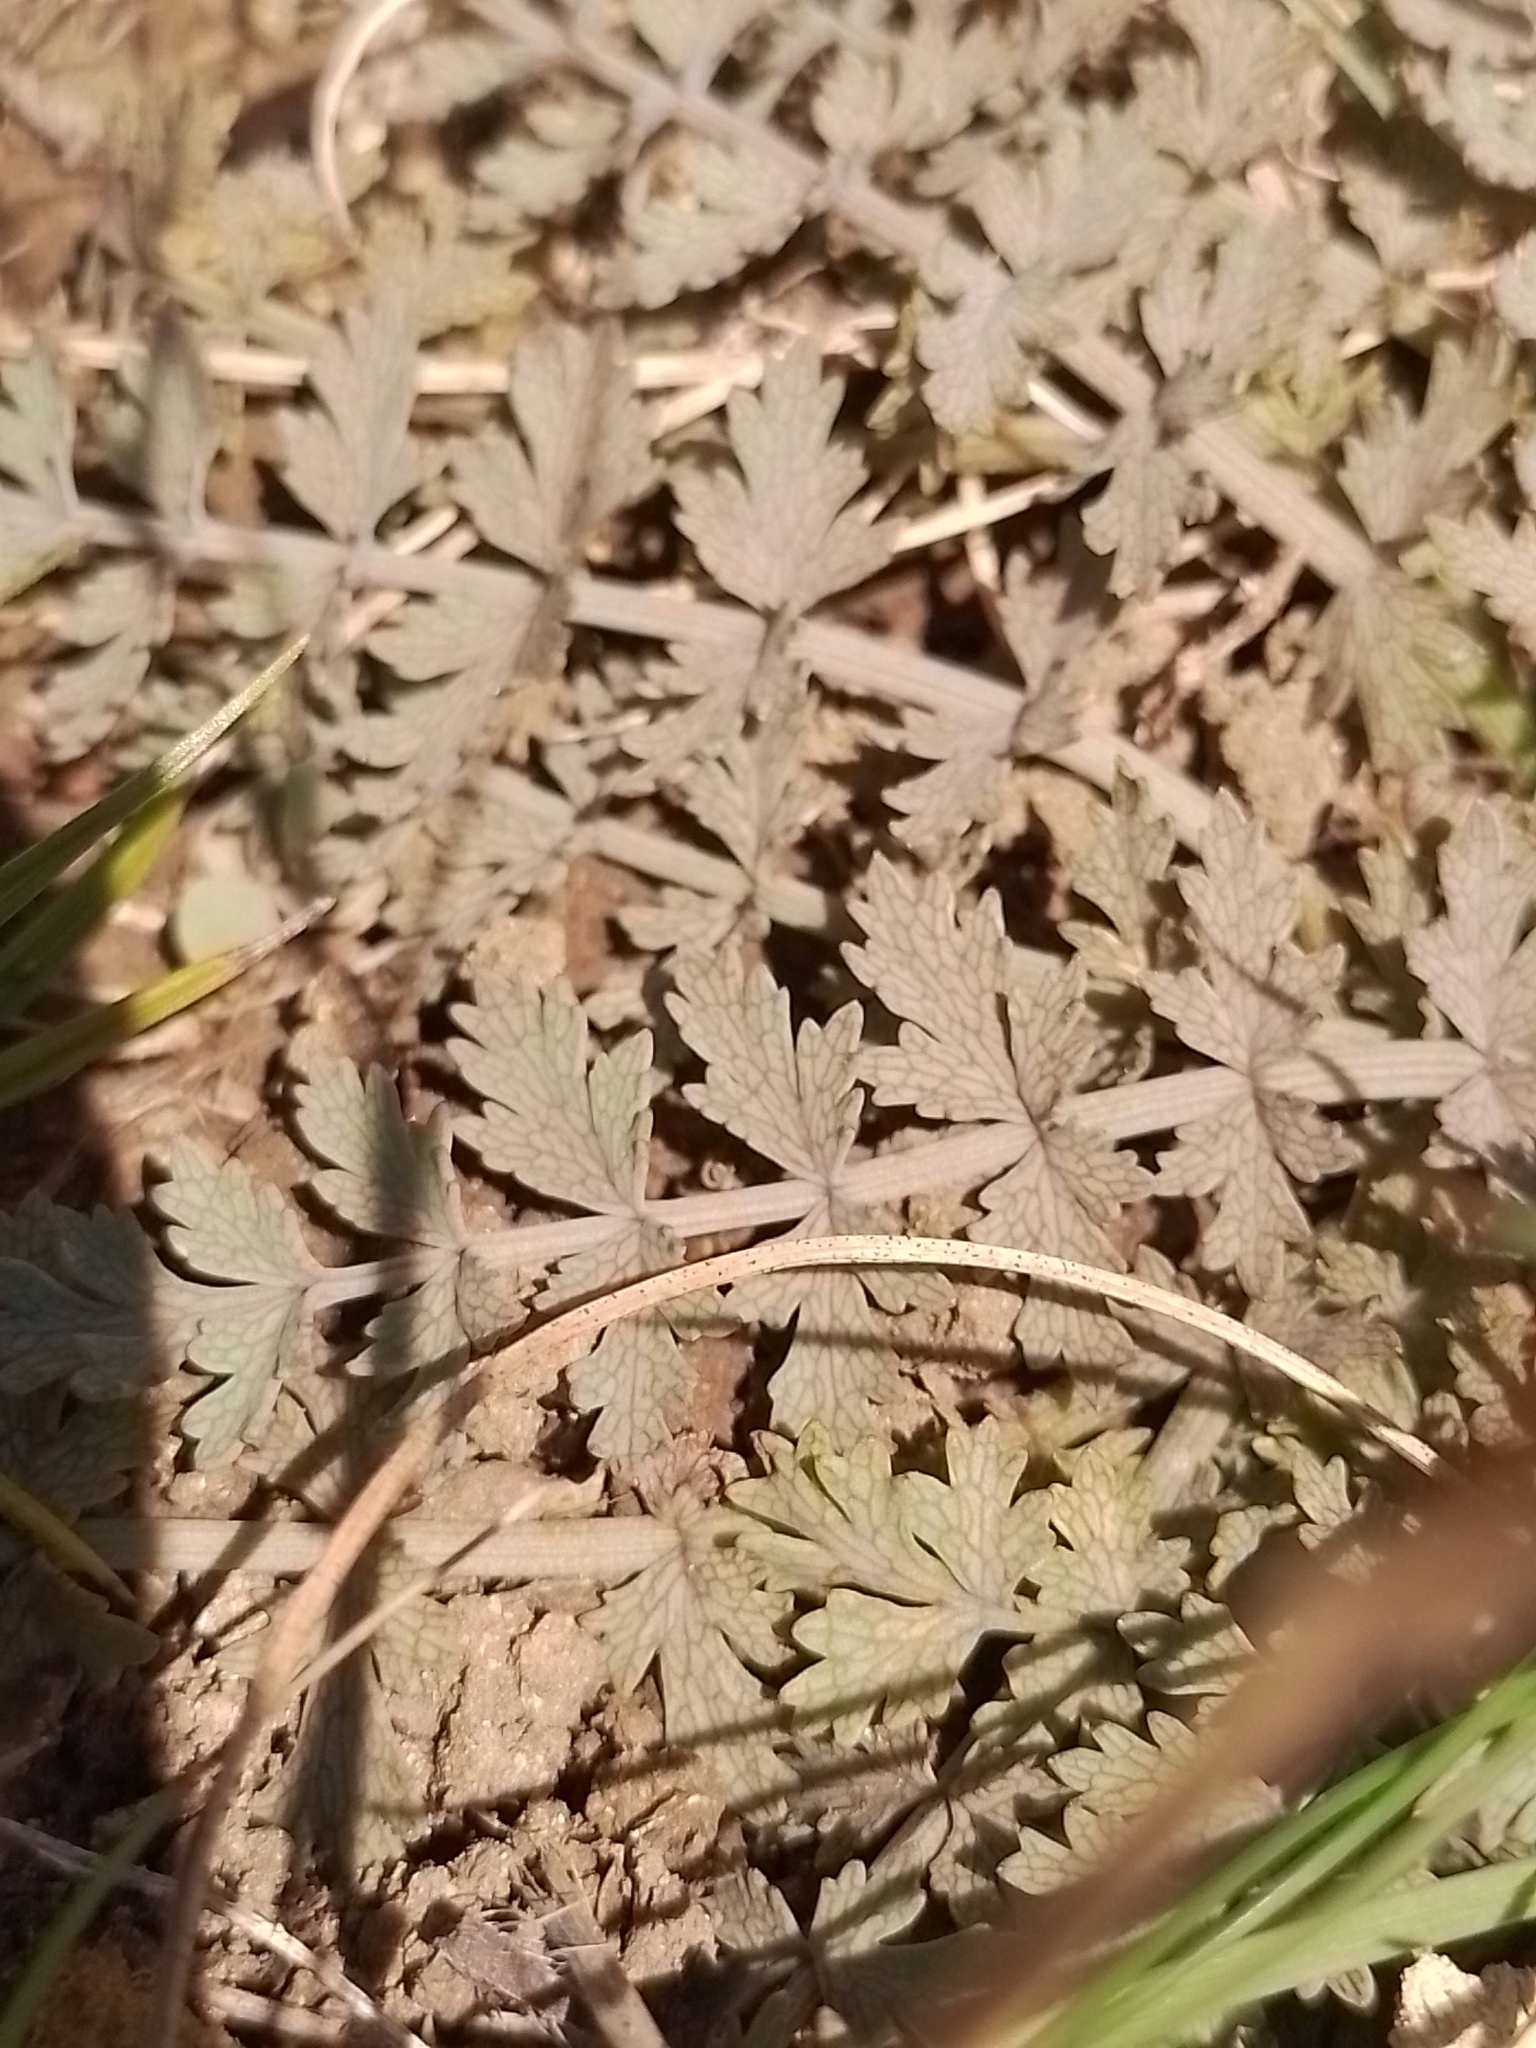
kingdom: Plantae
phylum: Tracheophyta
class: Magnoliopsida
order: Apiales
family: Apiaceae
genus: Gingidia
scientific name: Gingidia enysii
